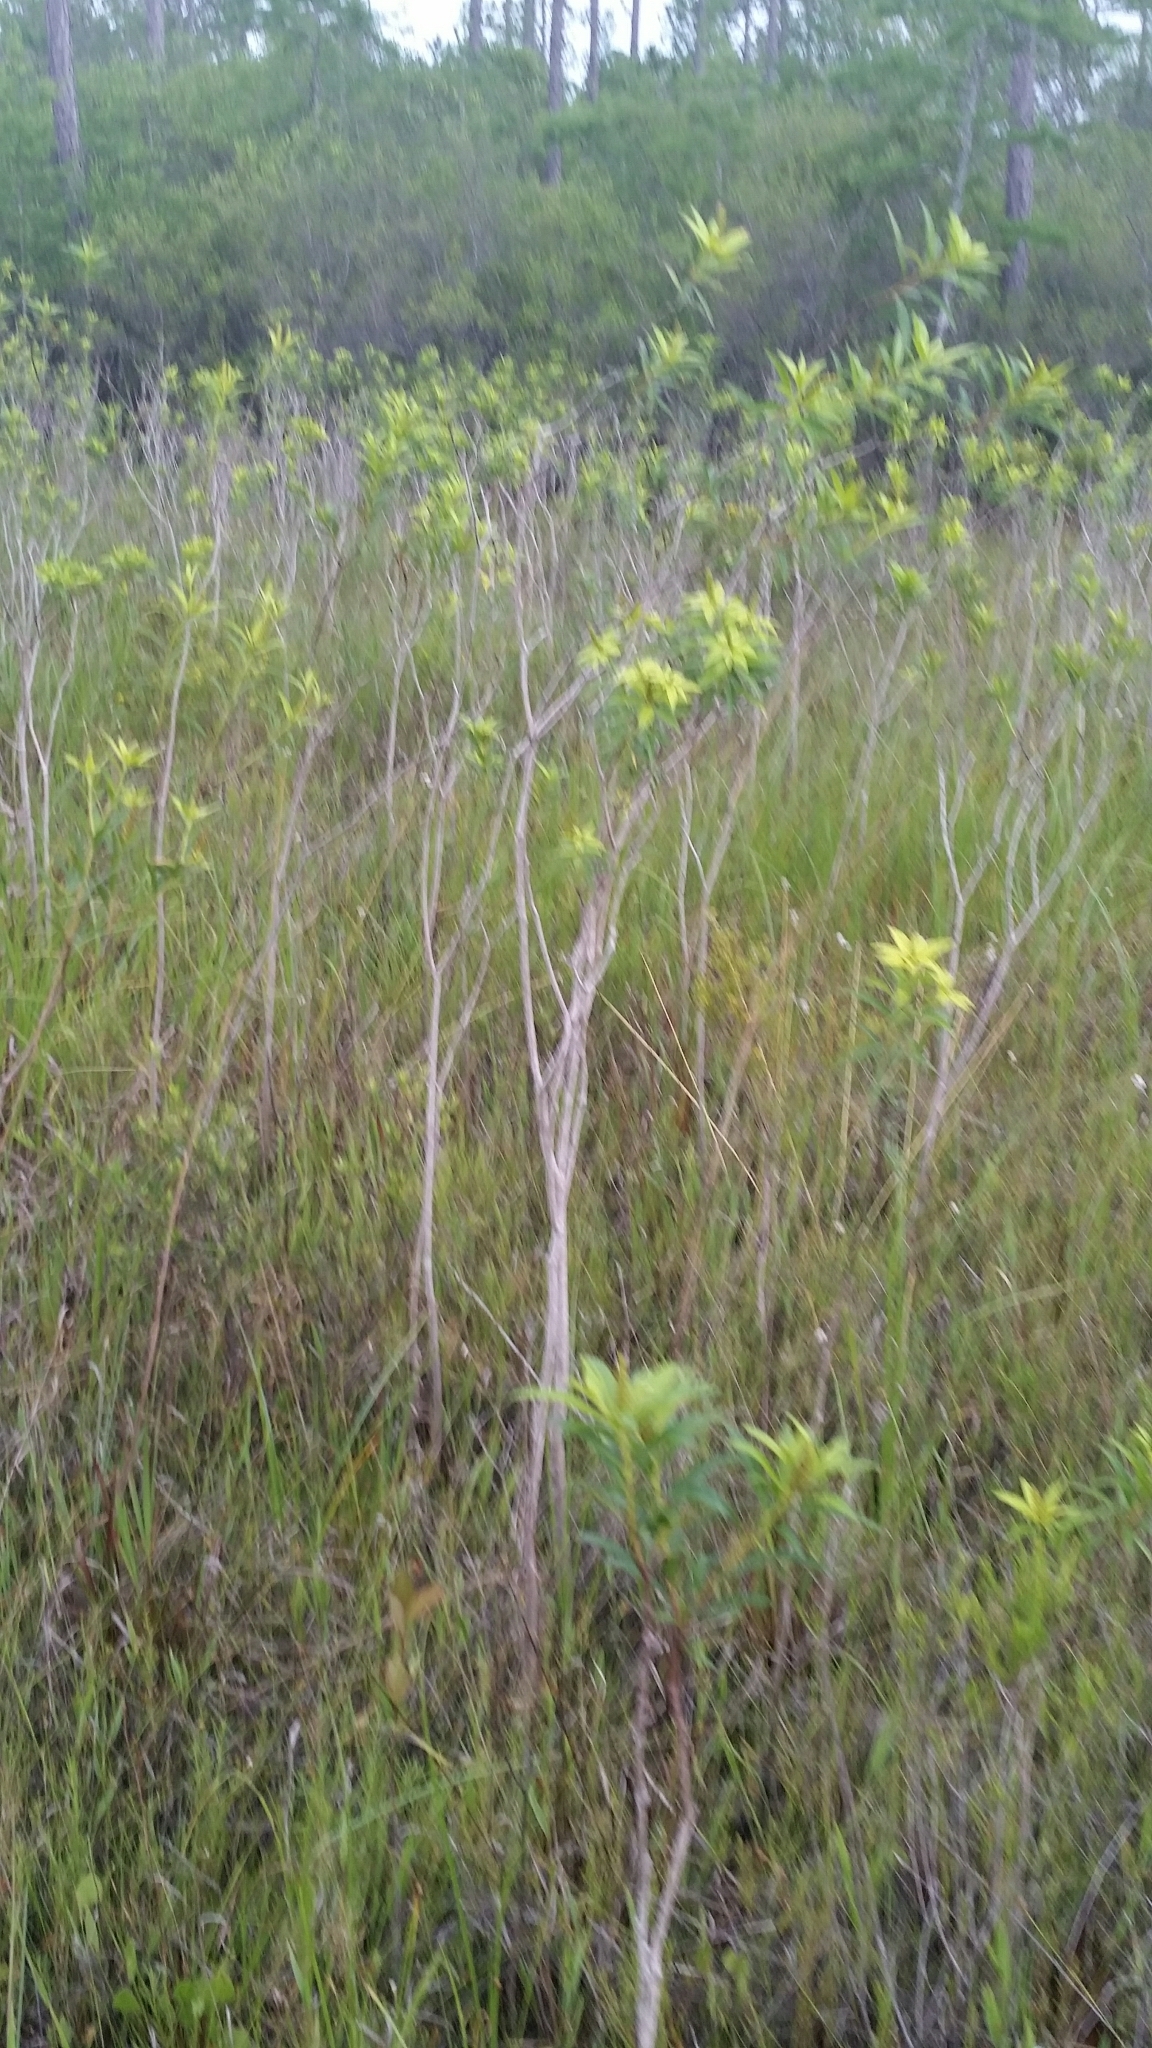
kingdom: Plantae
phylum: Tracheophyta
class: Magnoliopsida
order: Malpighiales
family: Euphorbiaceae
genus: Stillingia
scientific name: Stillingia aquatica
